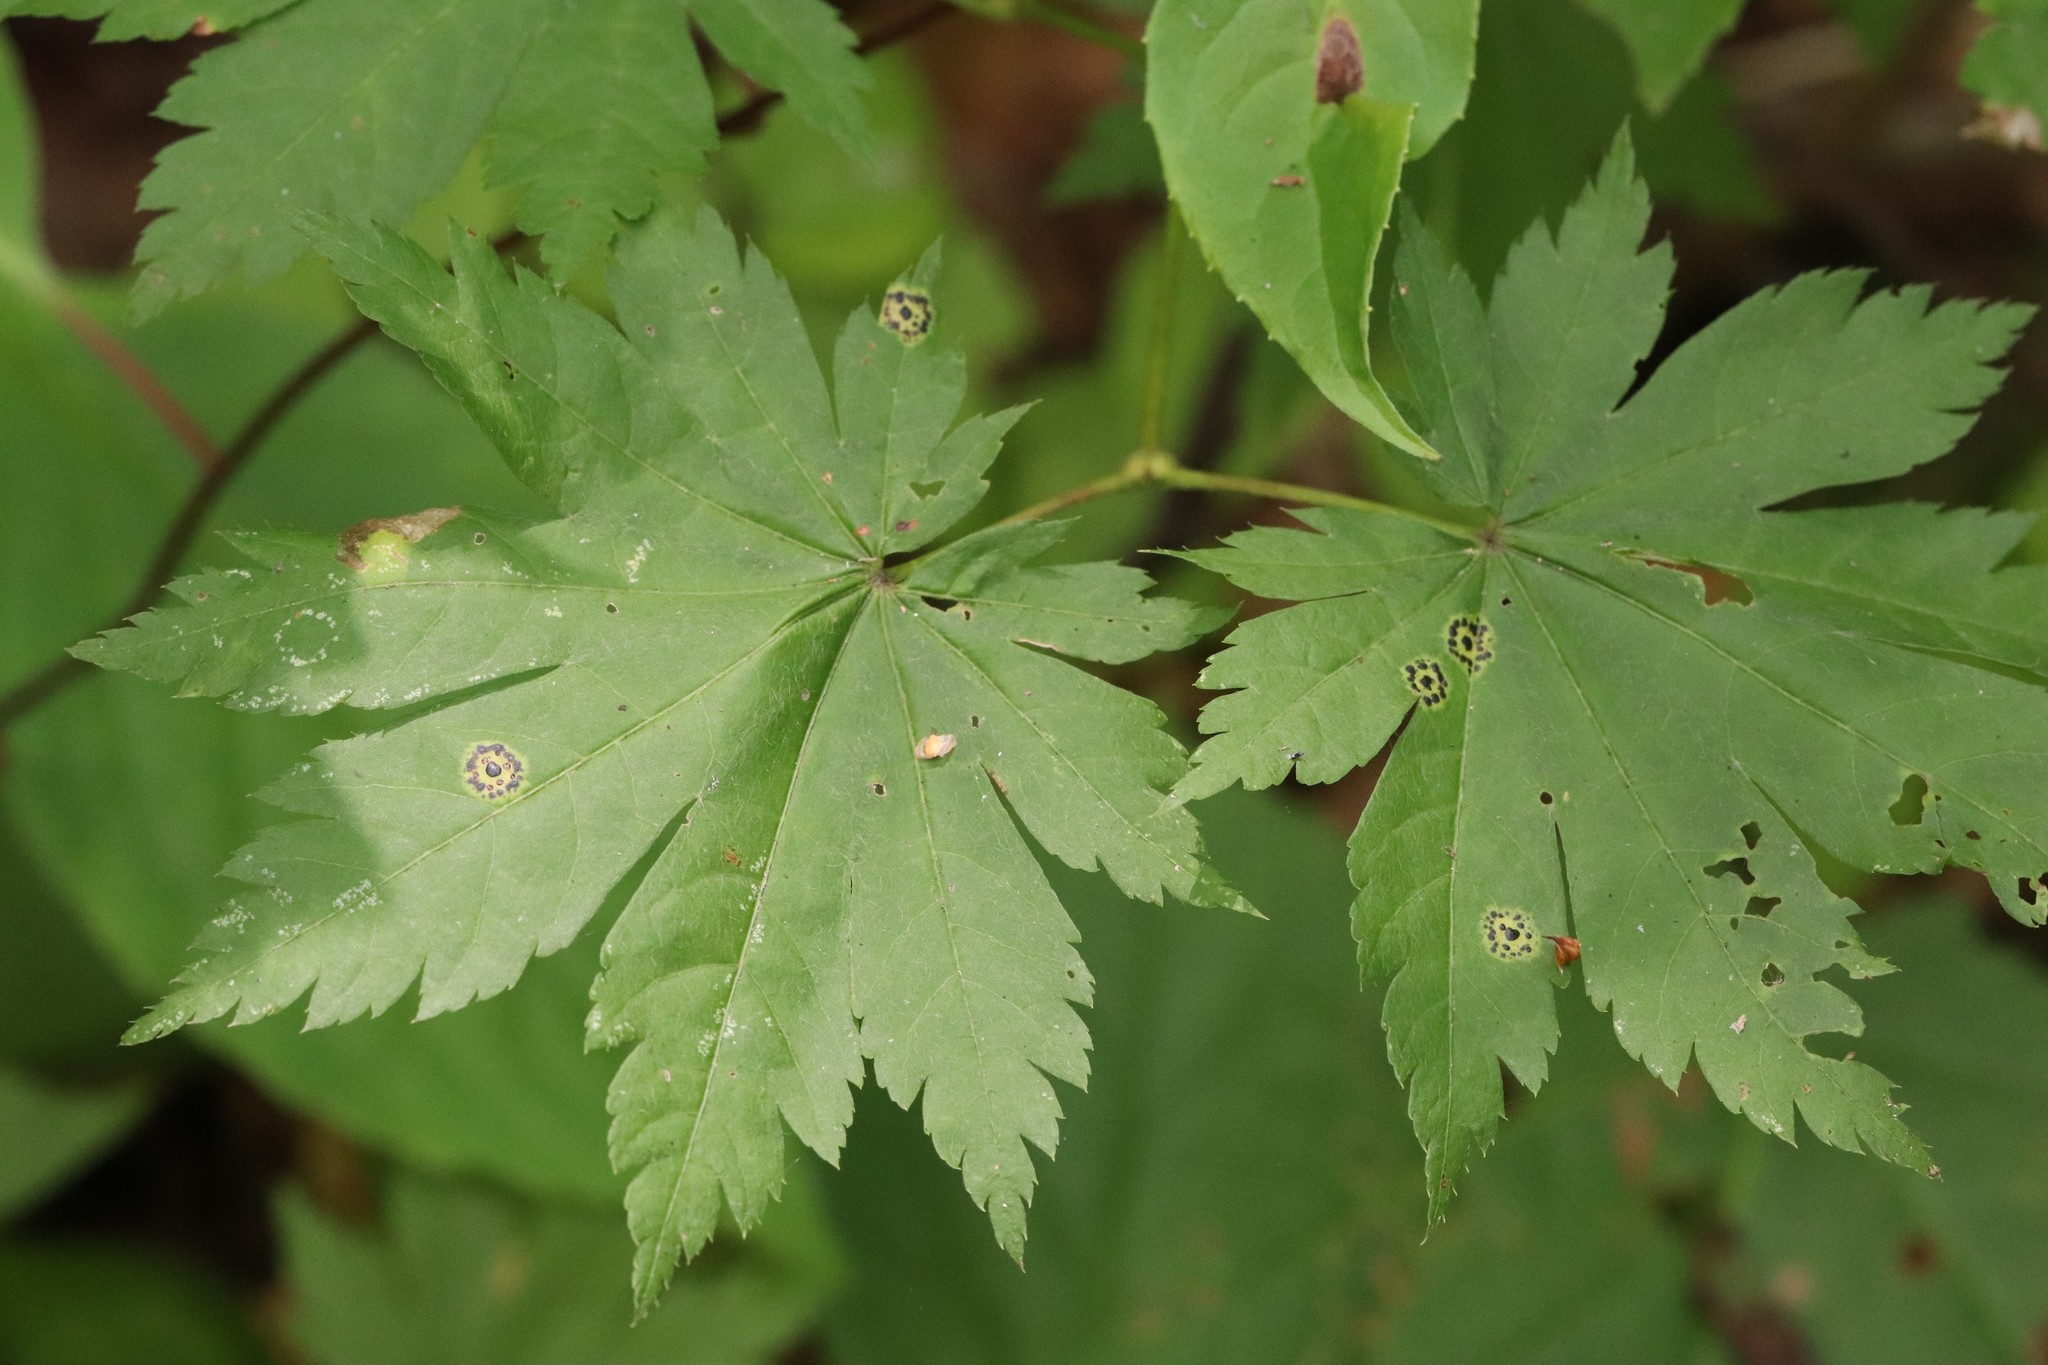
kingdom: Plantae
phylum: Tracheophyta
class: Magnoliopsida
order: Sapindales
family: Sapindaceae
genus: Acer
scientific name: Acer pseudosieboldianum
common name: Korean maple
